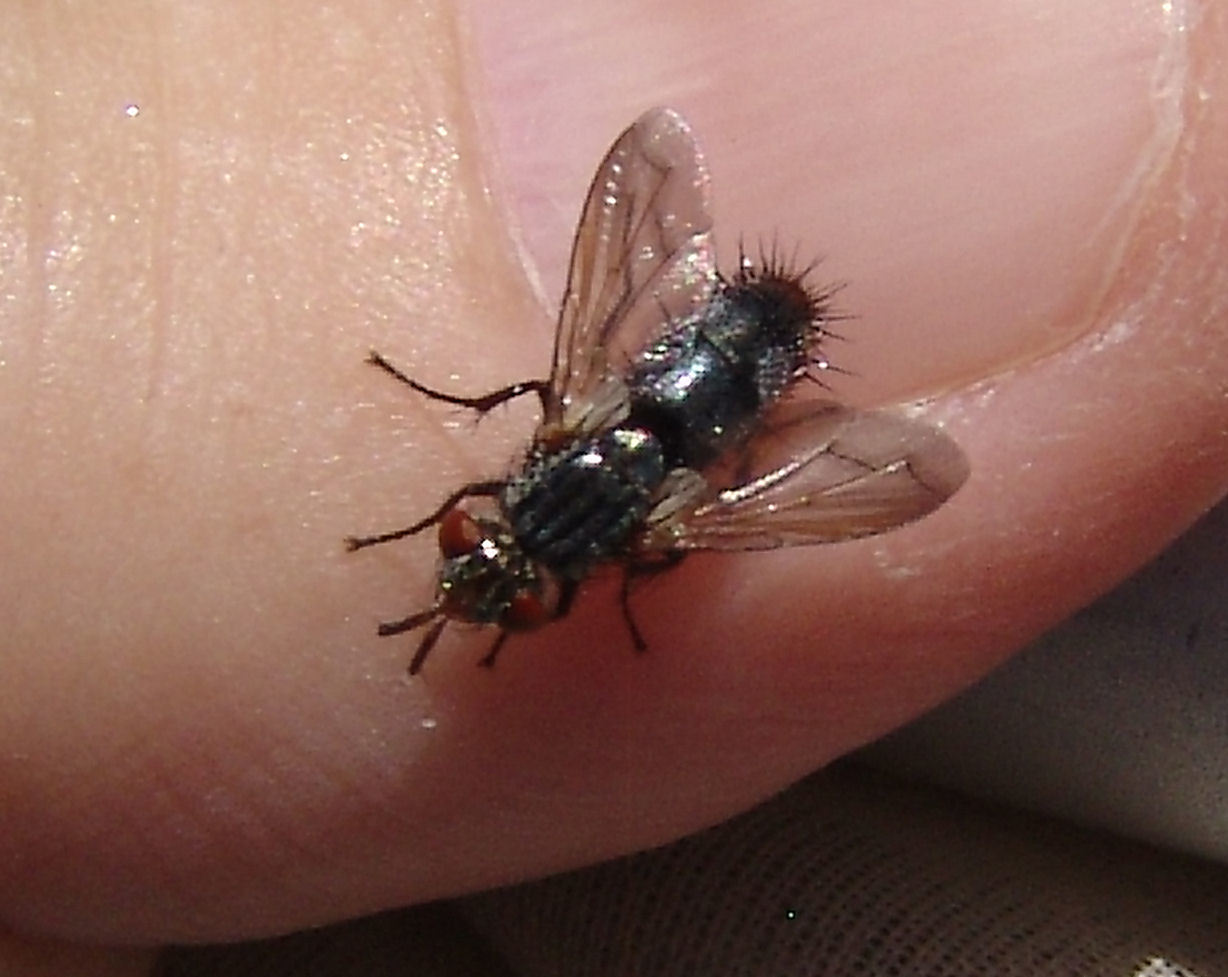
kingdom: Animalia
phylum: Arthropoda
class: Insecta
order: Diptera
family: Tachinidae
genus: Copecrypta
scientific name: Copecrypta ruficauda
